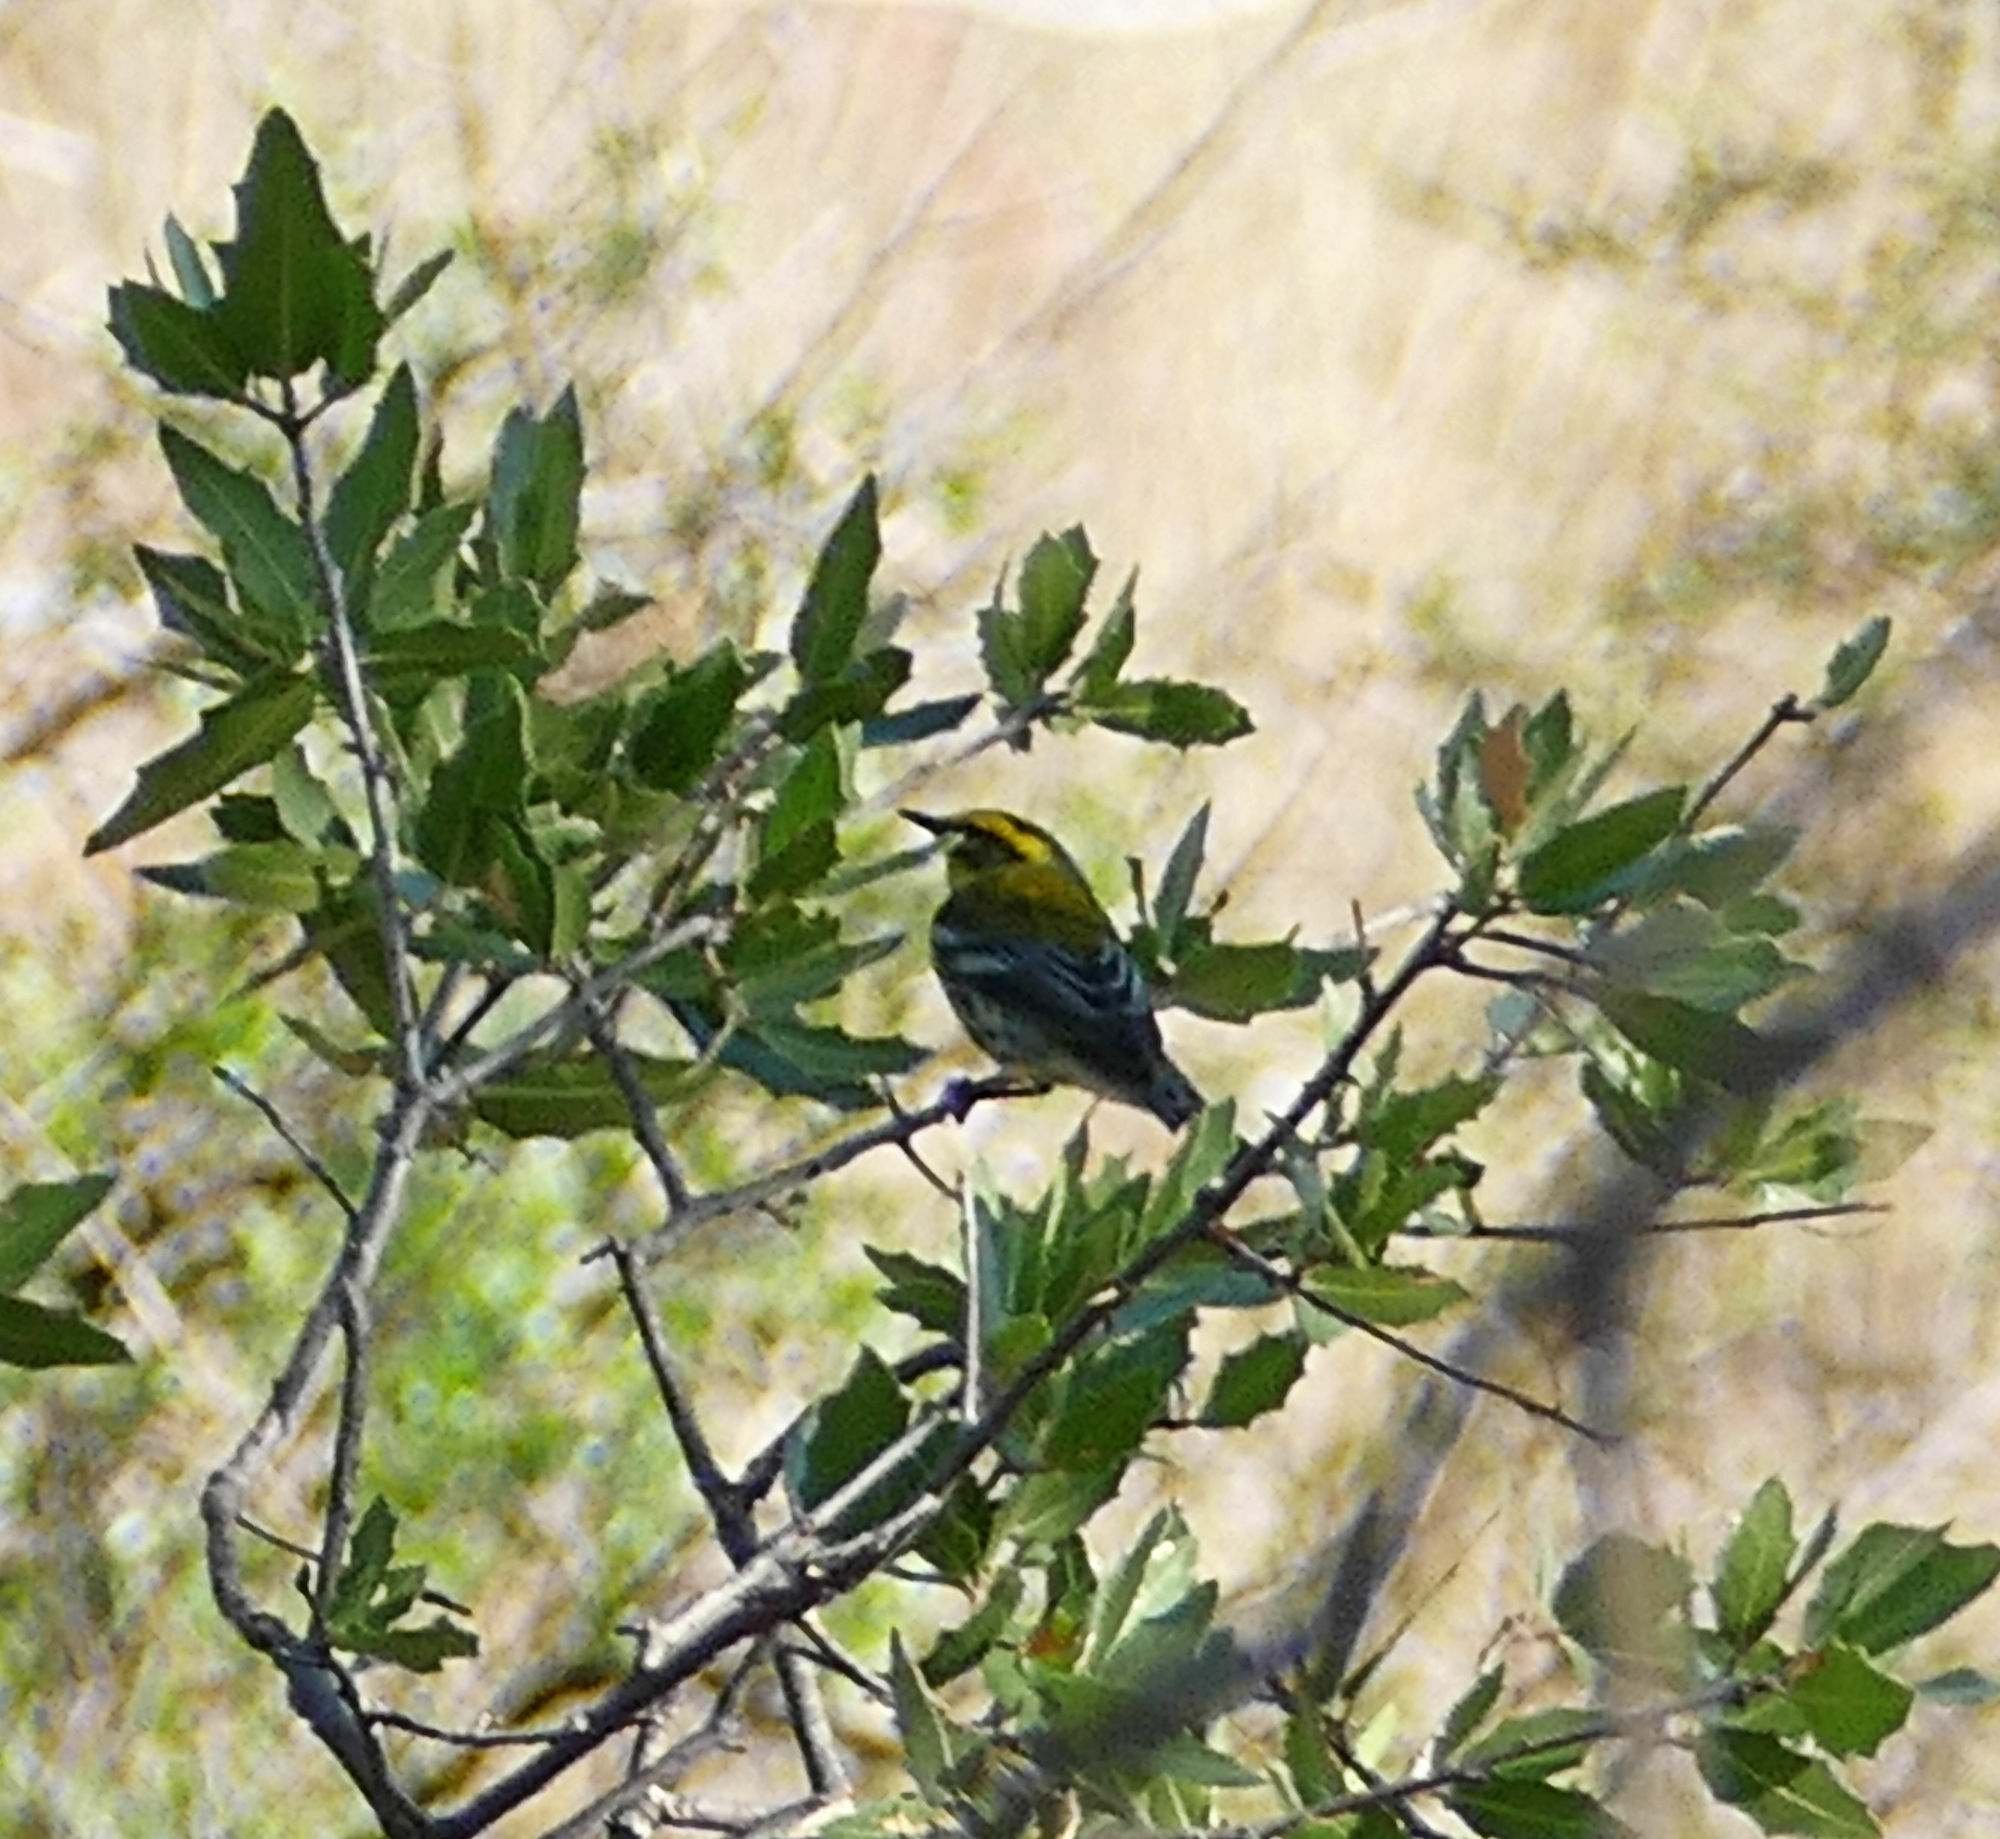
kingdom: Animalia
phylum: Chordata
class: Aves
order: Passeriformes
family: Parulidae
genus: Setophaga
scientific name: Setophaga townsendi
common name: Townsend's warbler
